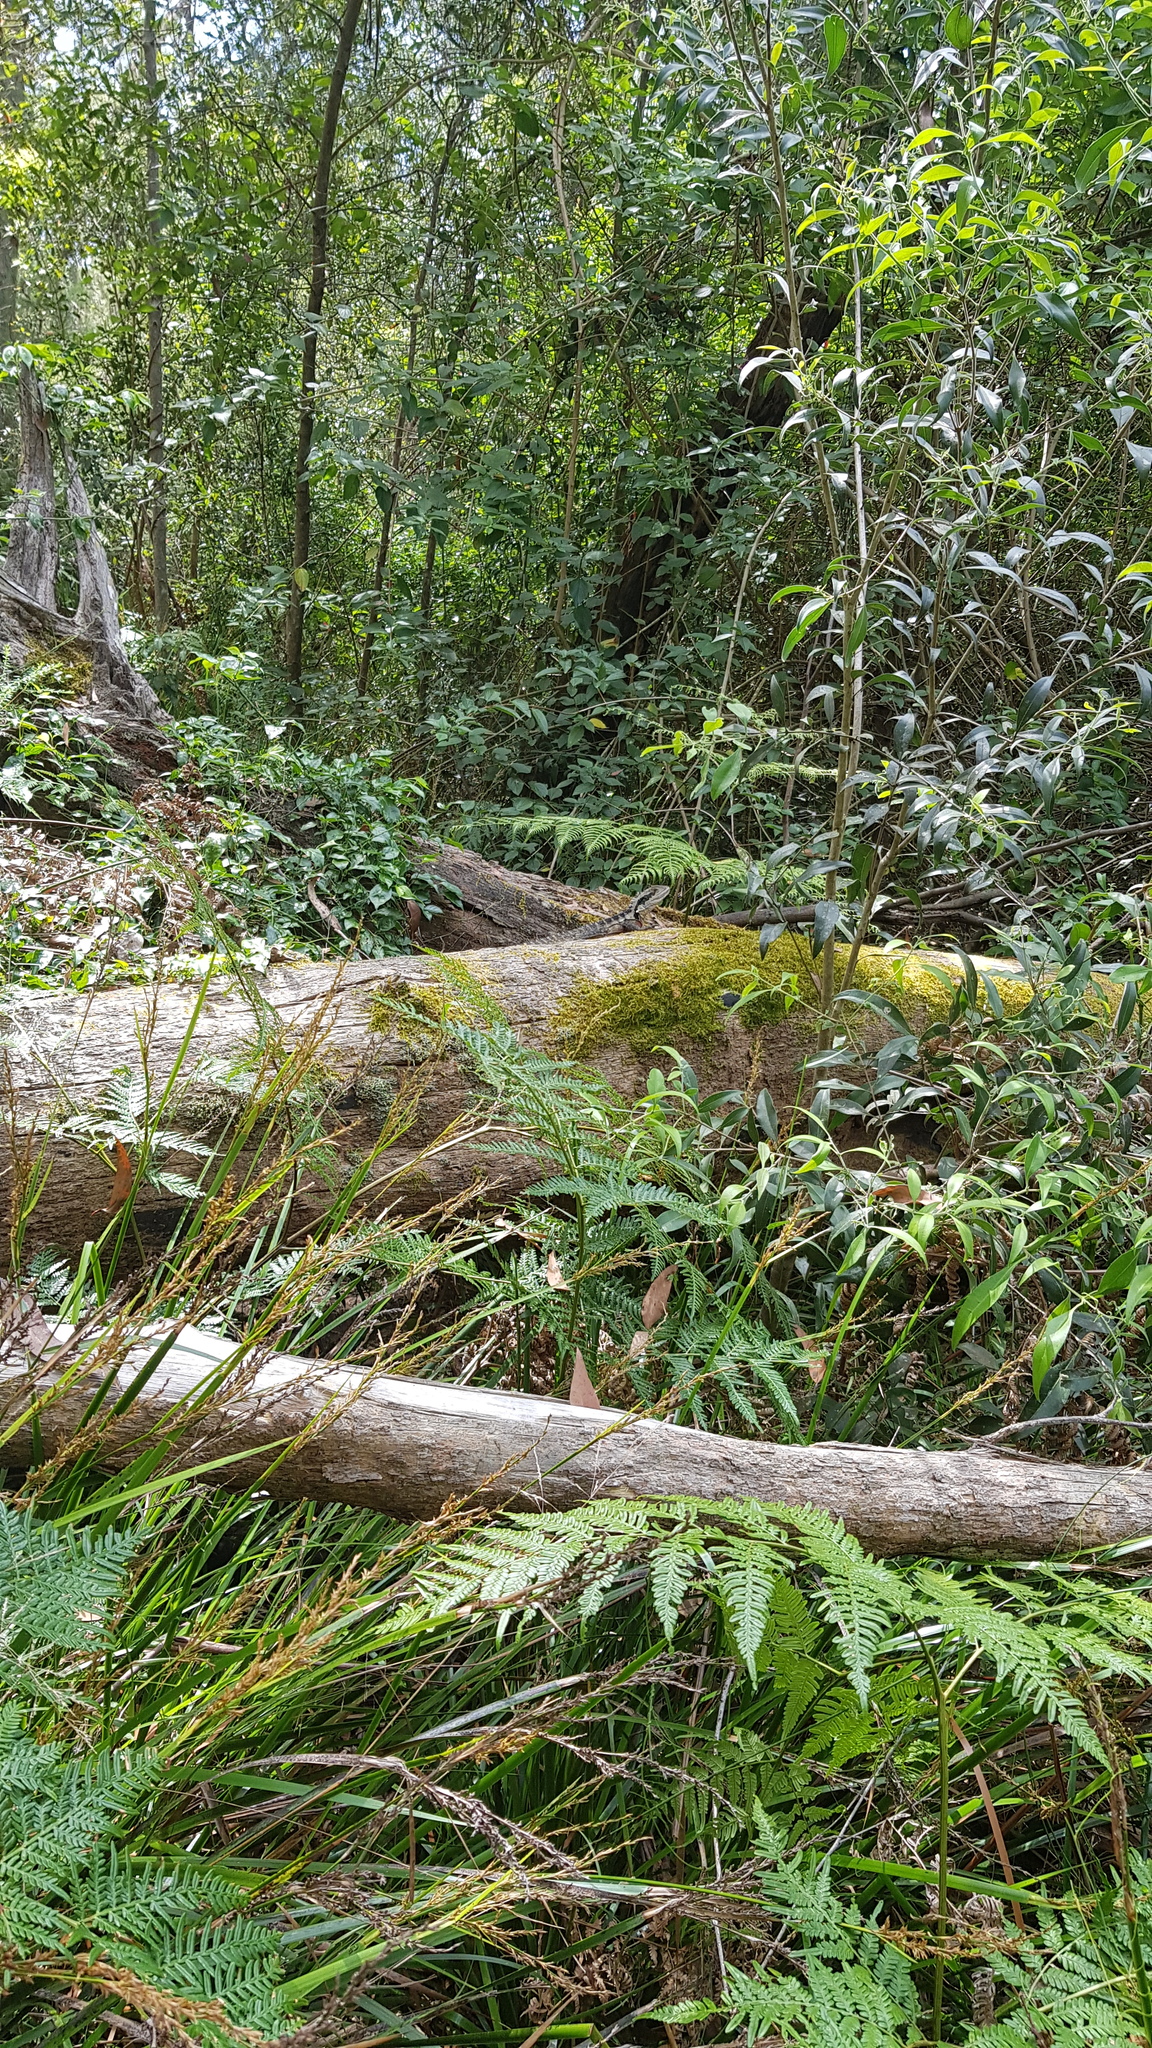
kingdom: Animalia
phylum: Chordata
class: Squamata
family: Agamidae
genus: Intellagama
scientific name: Intellagama lesueurii
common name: Eastern water dragon
